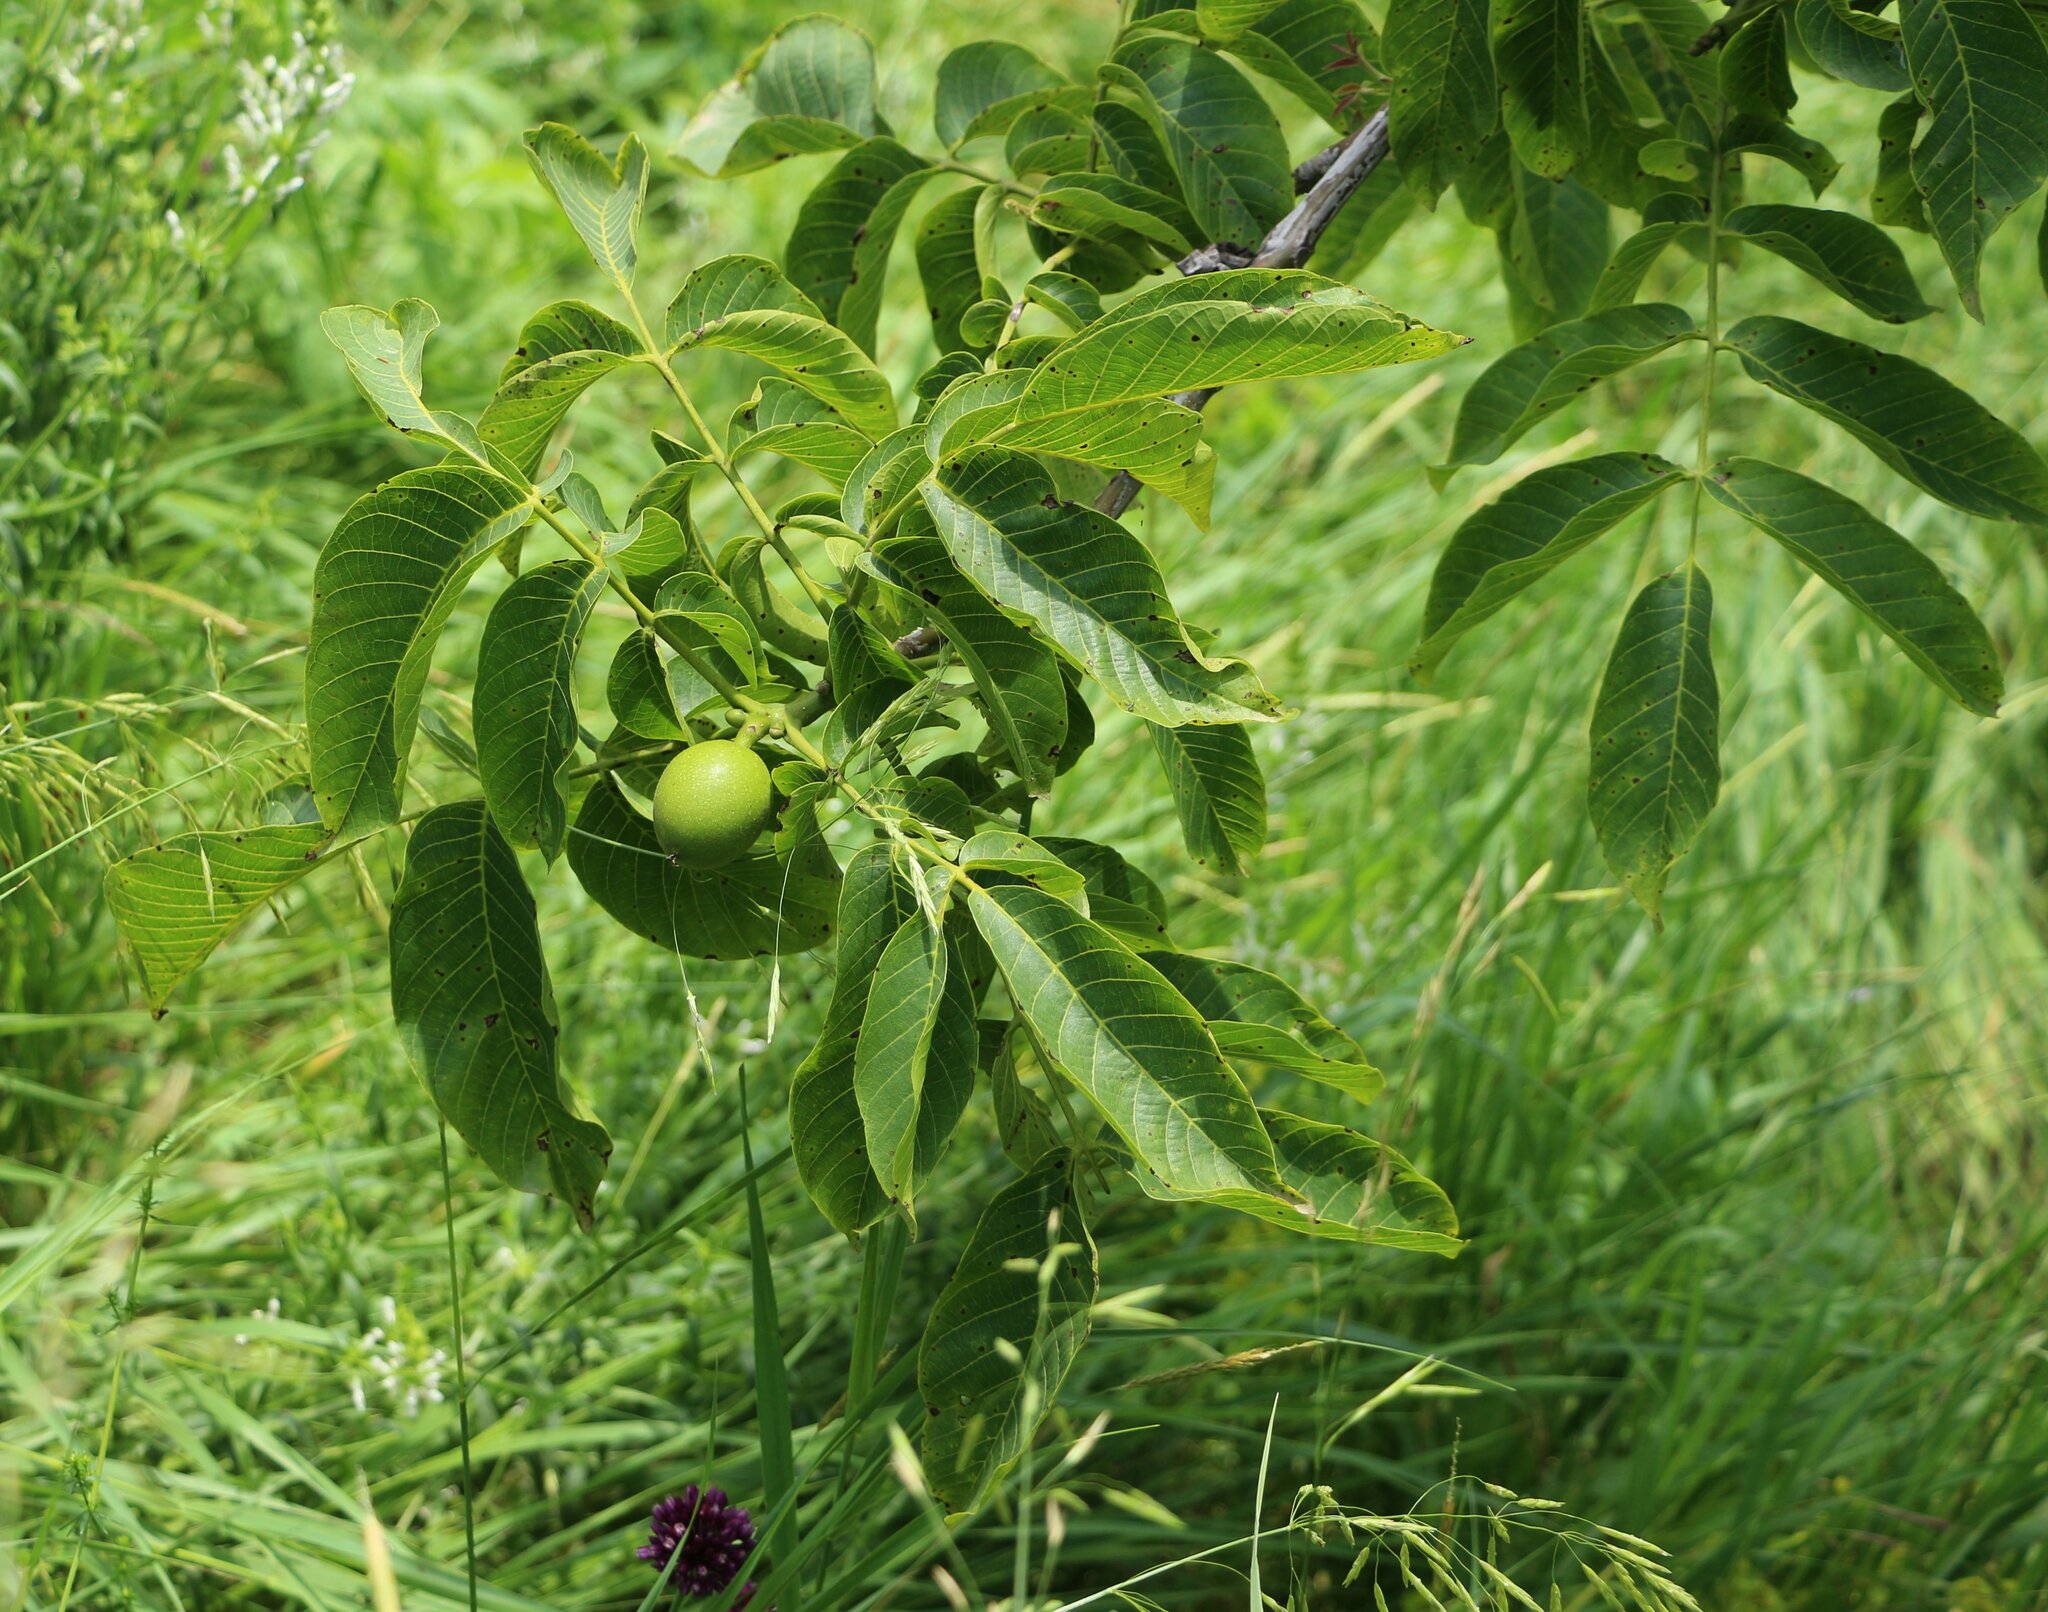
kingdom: Plantae
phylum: Tracheophyta
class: Magnoliopsida
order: Fagales
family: Juglandaceae
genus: Juglans
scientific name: Juglans regia
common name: Walnut
